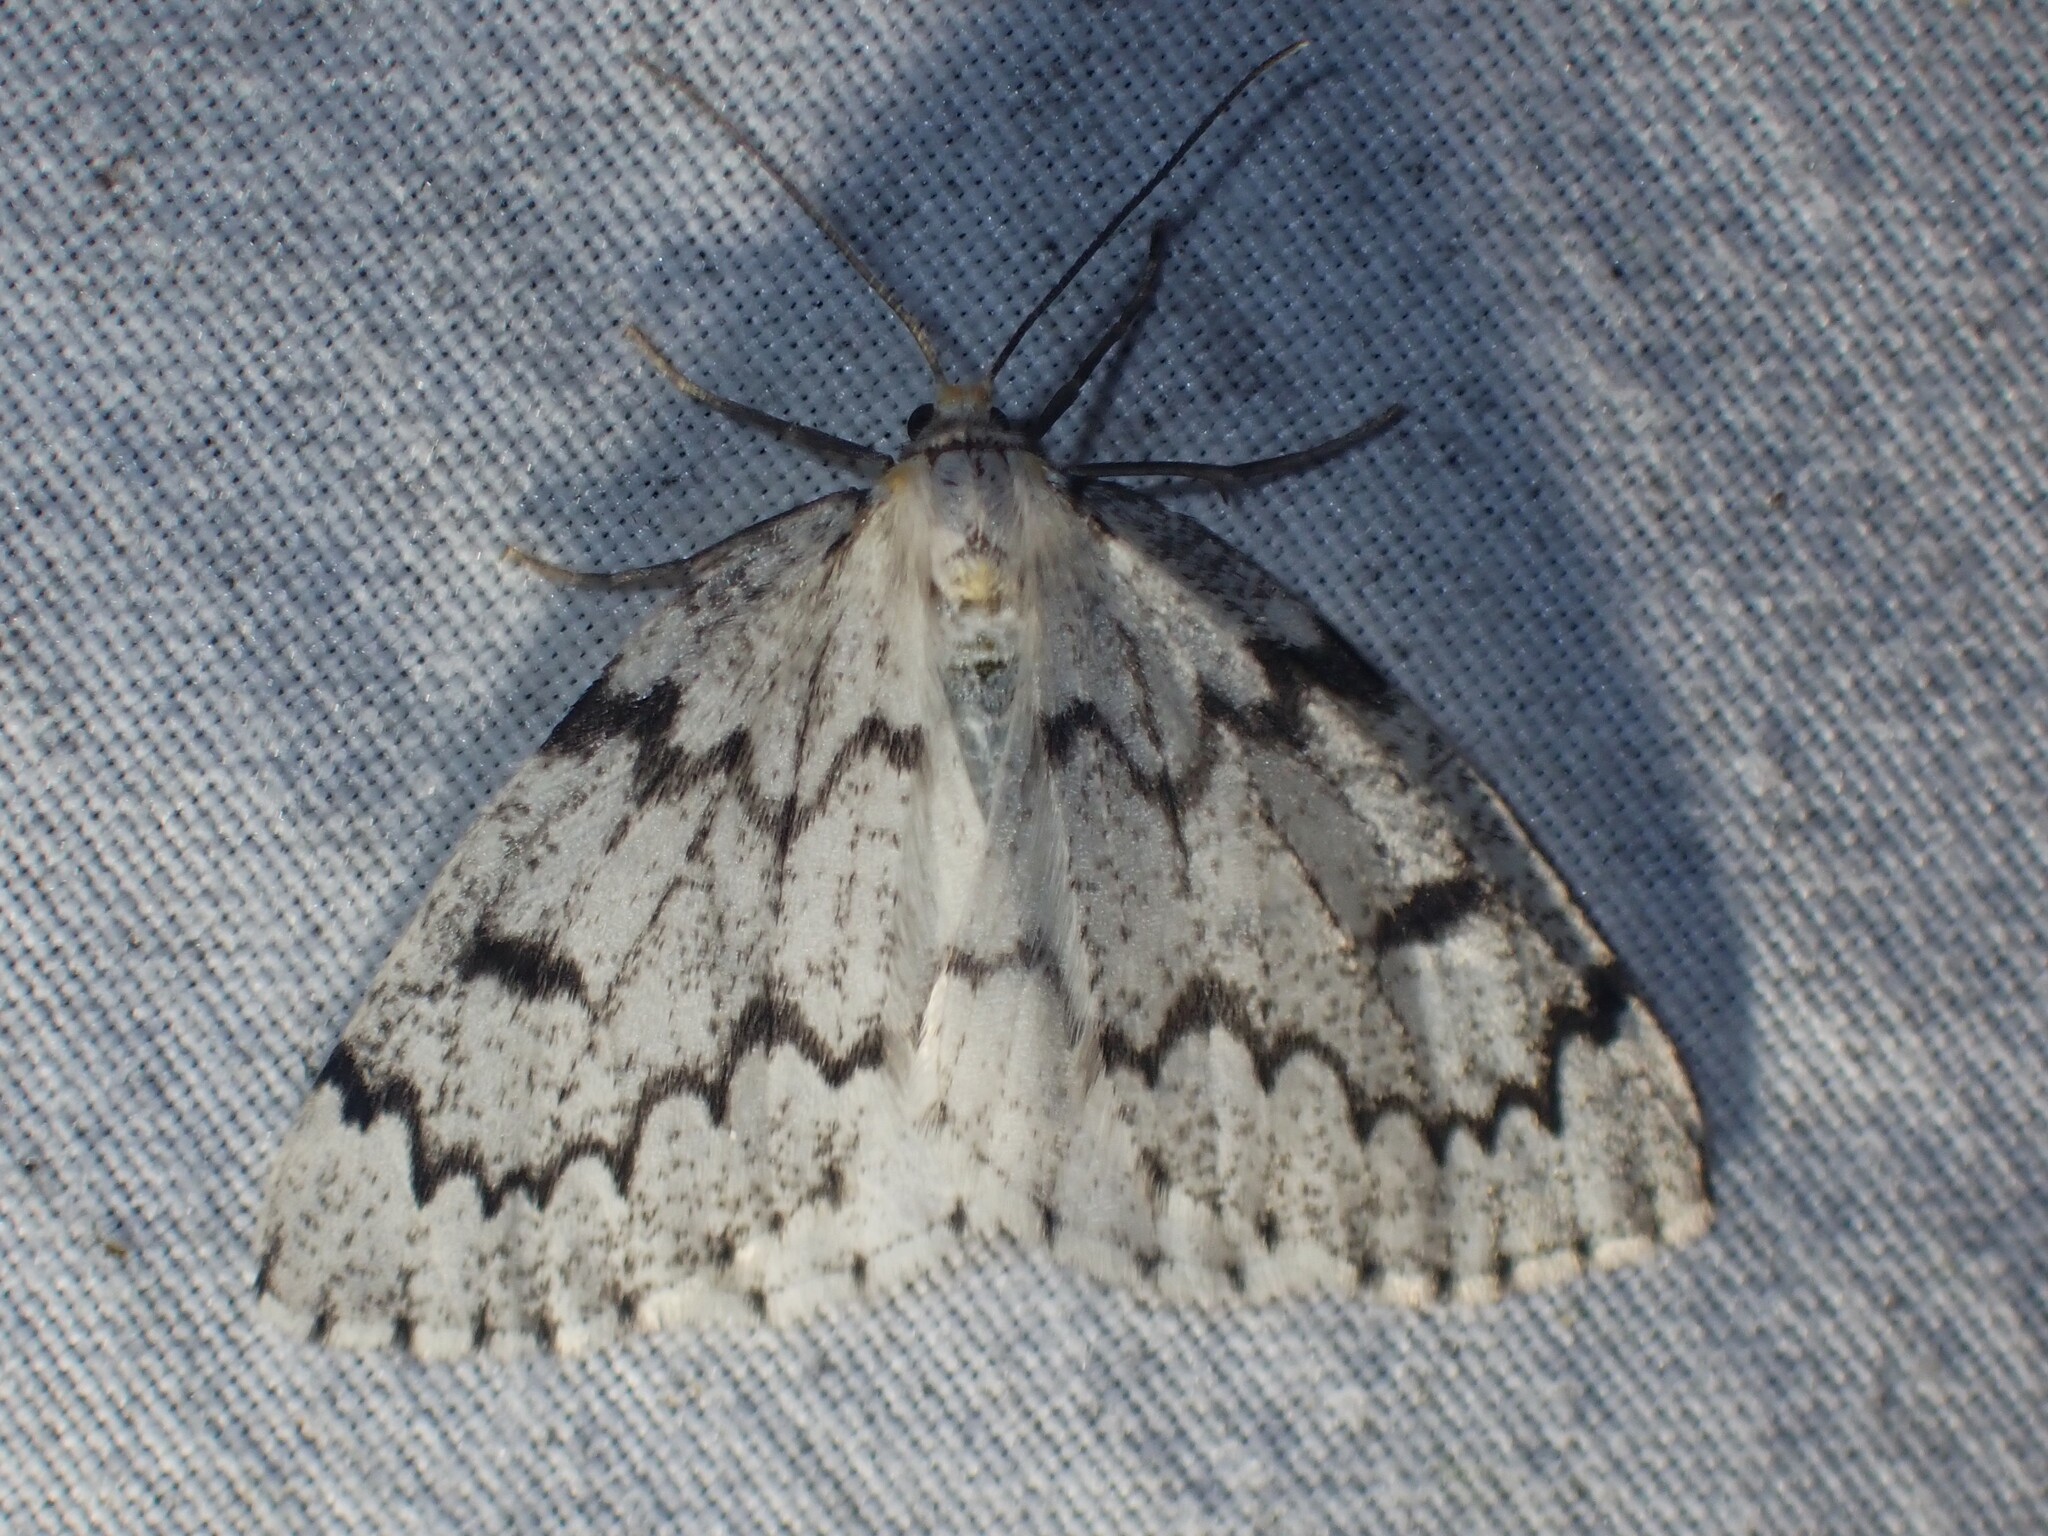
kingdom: Animalia
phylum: Arthropoda
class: Insecta
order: Lepidoptera
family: Geometridae
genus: Nepytia
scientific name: Nepytia canosaria
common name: False hemlock looper
